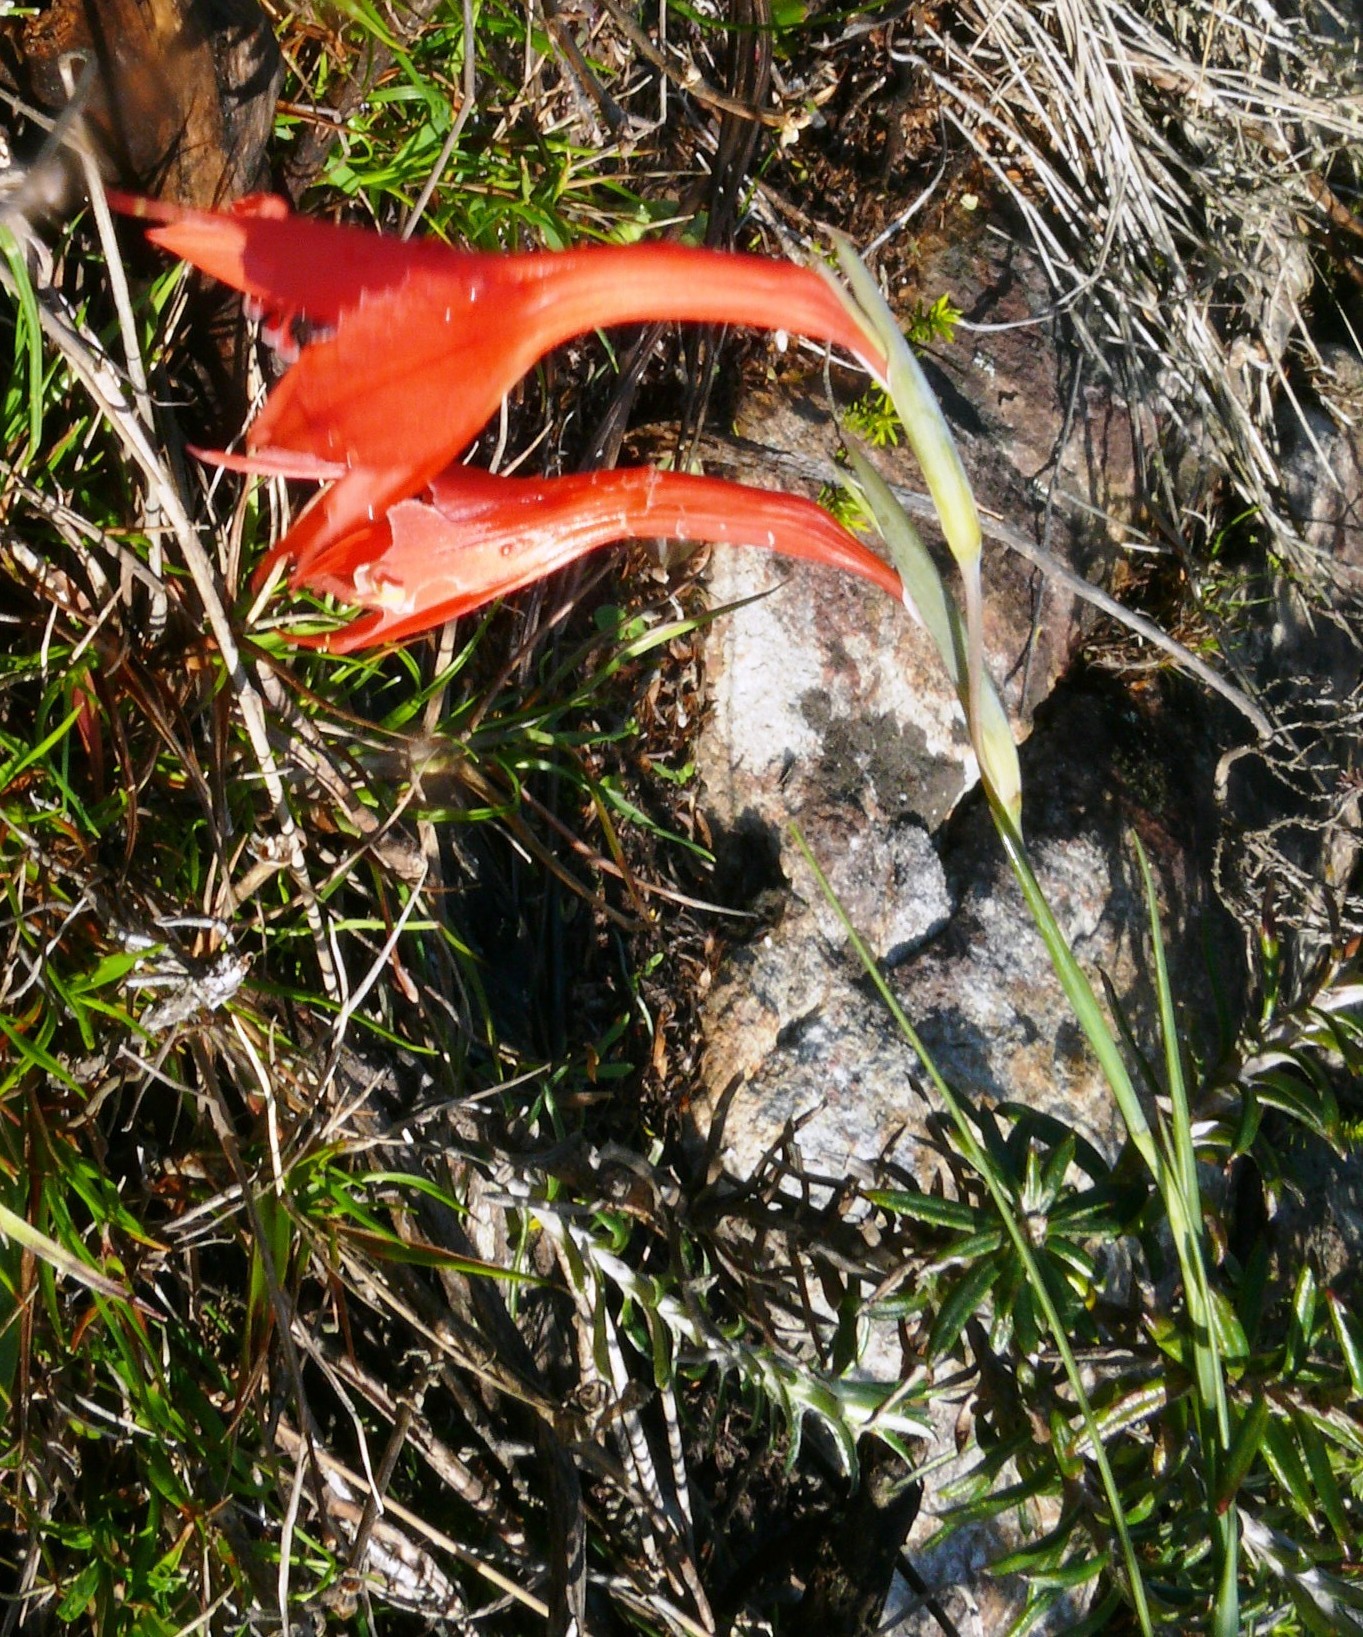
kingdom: Plantae
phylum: Tracheophyta
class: Liliopsida
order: Asparagales
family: Iridaceae
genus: Gladiolus
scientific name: Gladiolus priorii
